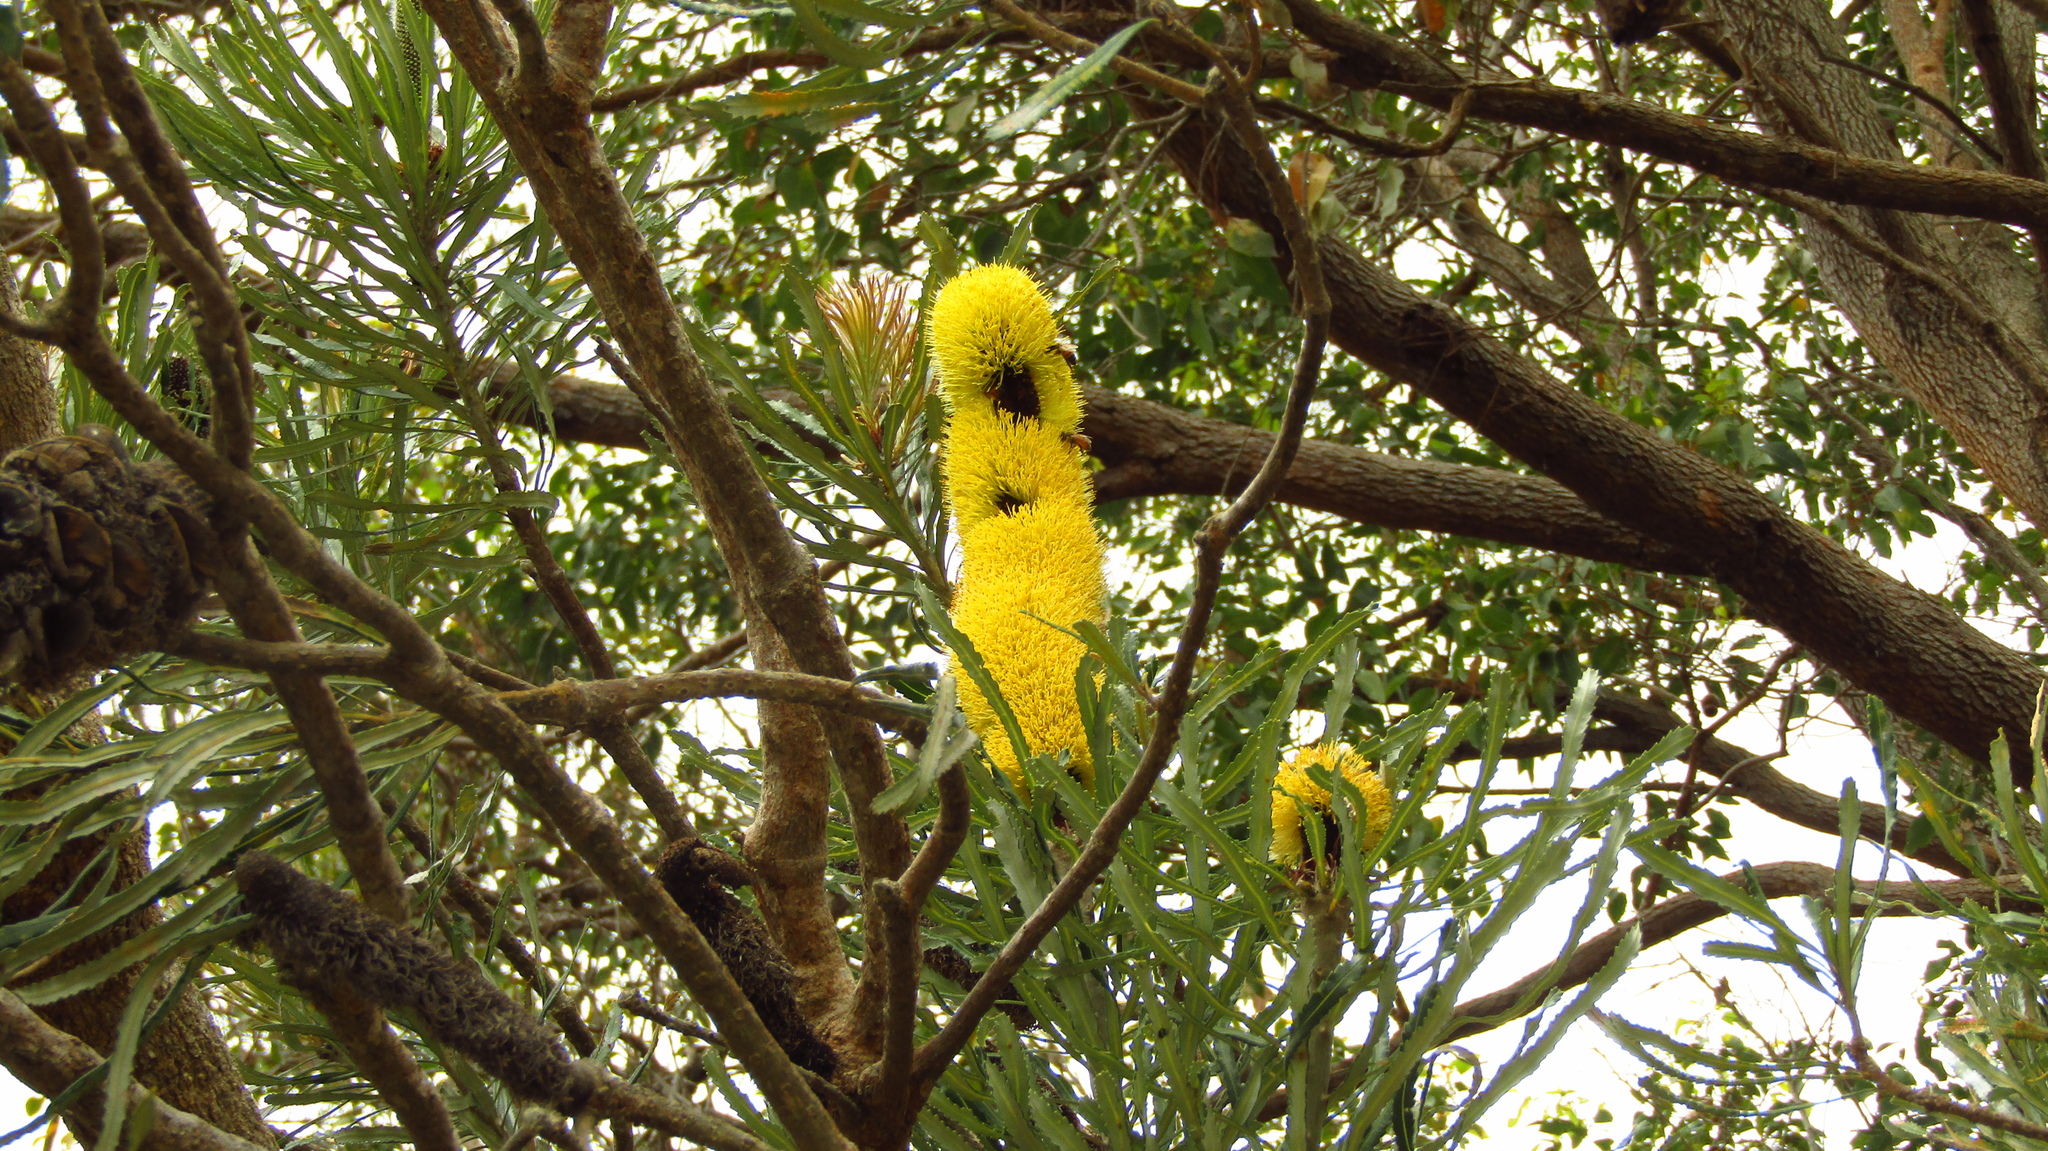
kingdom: Plantae
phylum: Tracheophyta
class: Magnoliopsida
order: Proteales
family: Proteaceae
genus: Banksia
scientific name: Banksia attenuata
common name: Coast banksia
